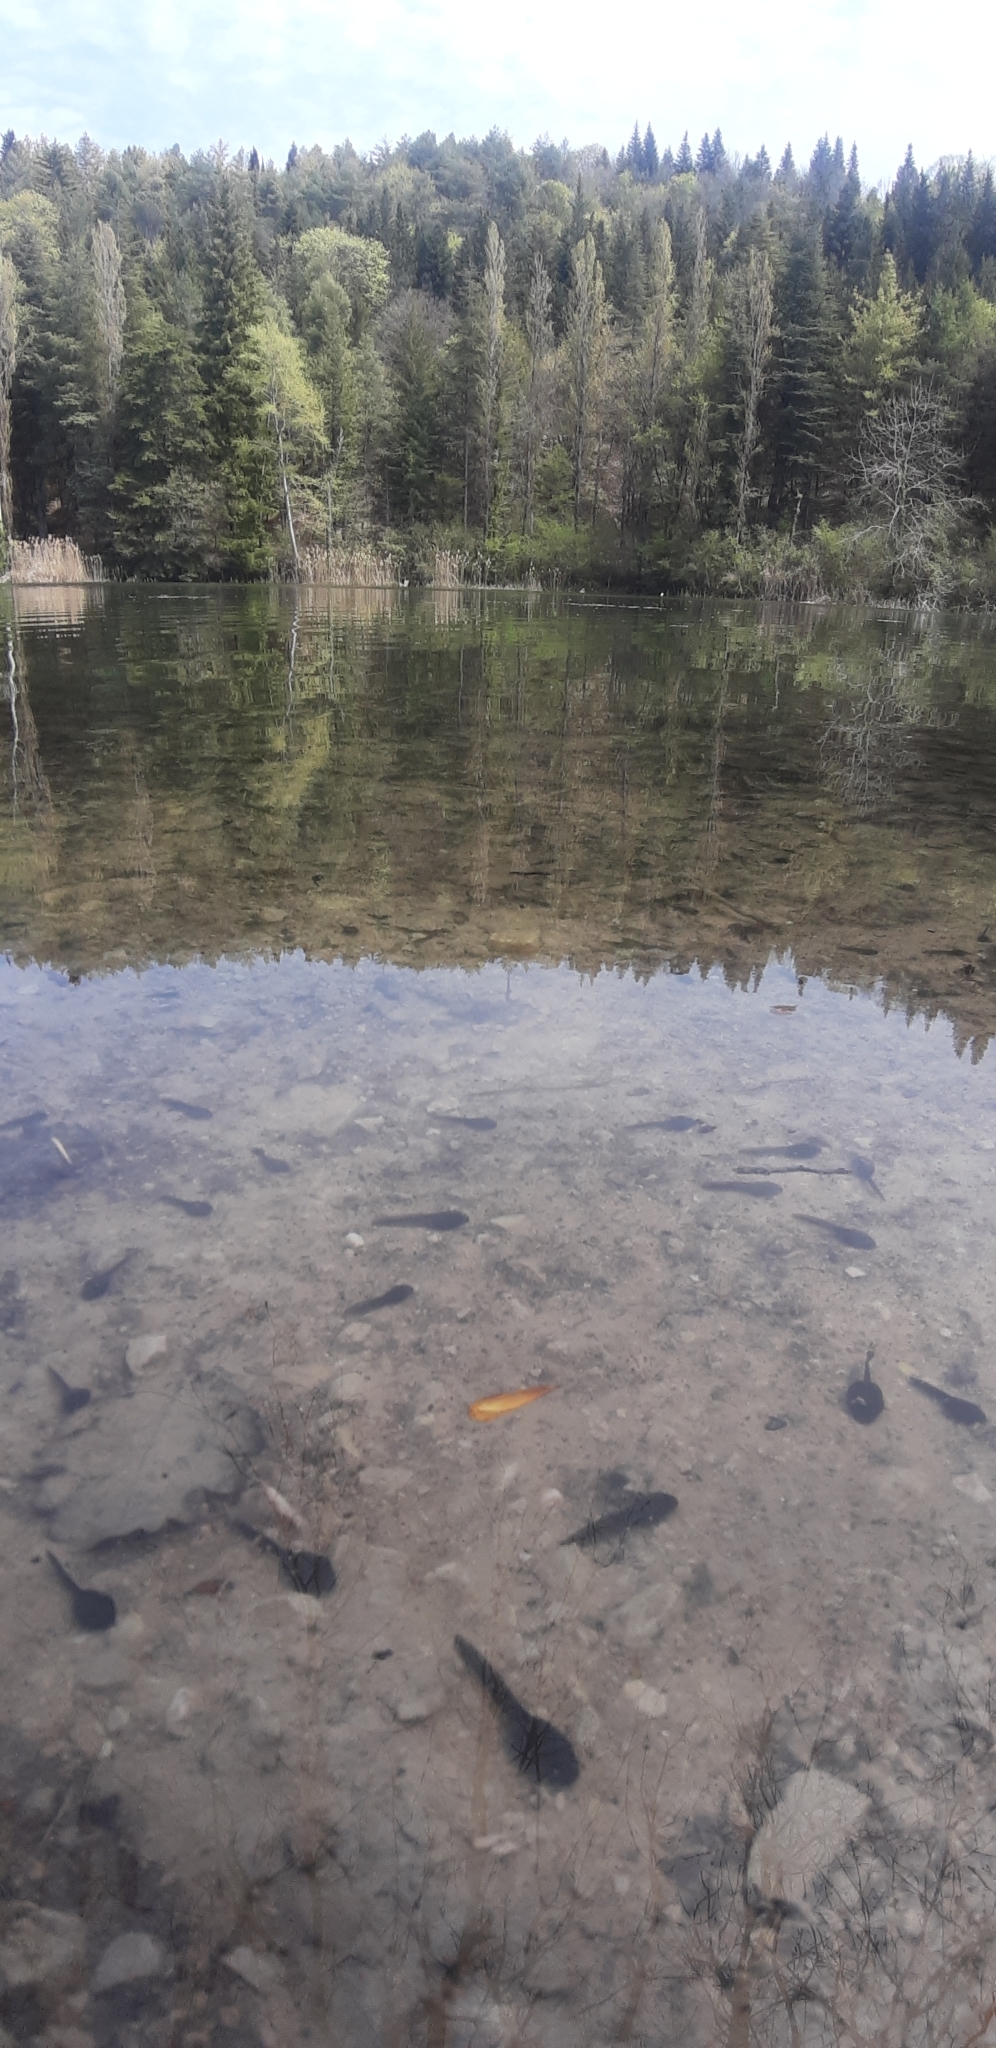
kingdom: Animalia
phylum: Chordata
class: Amphibia
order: Anura
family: Bufonidae
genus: Bufo
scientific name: Bufo bufo
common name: Common toad
